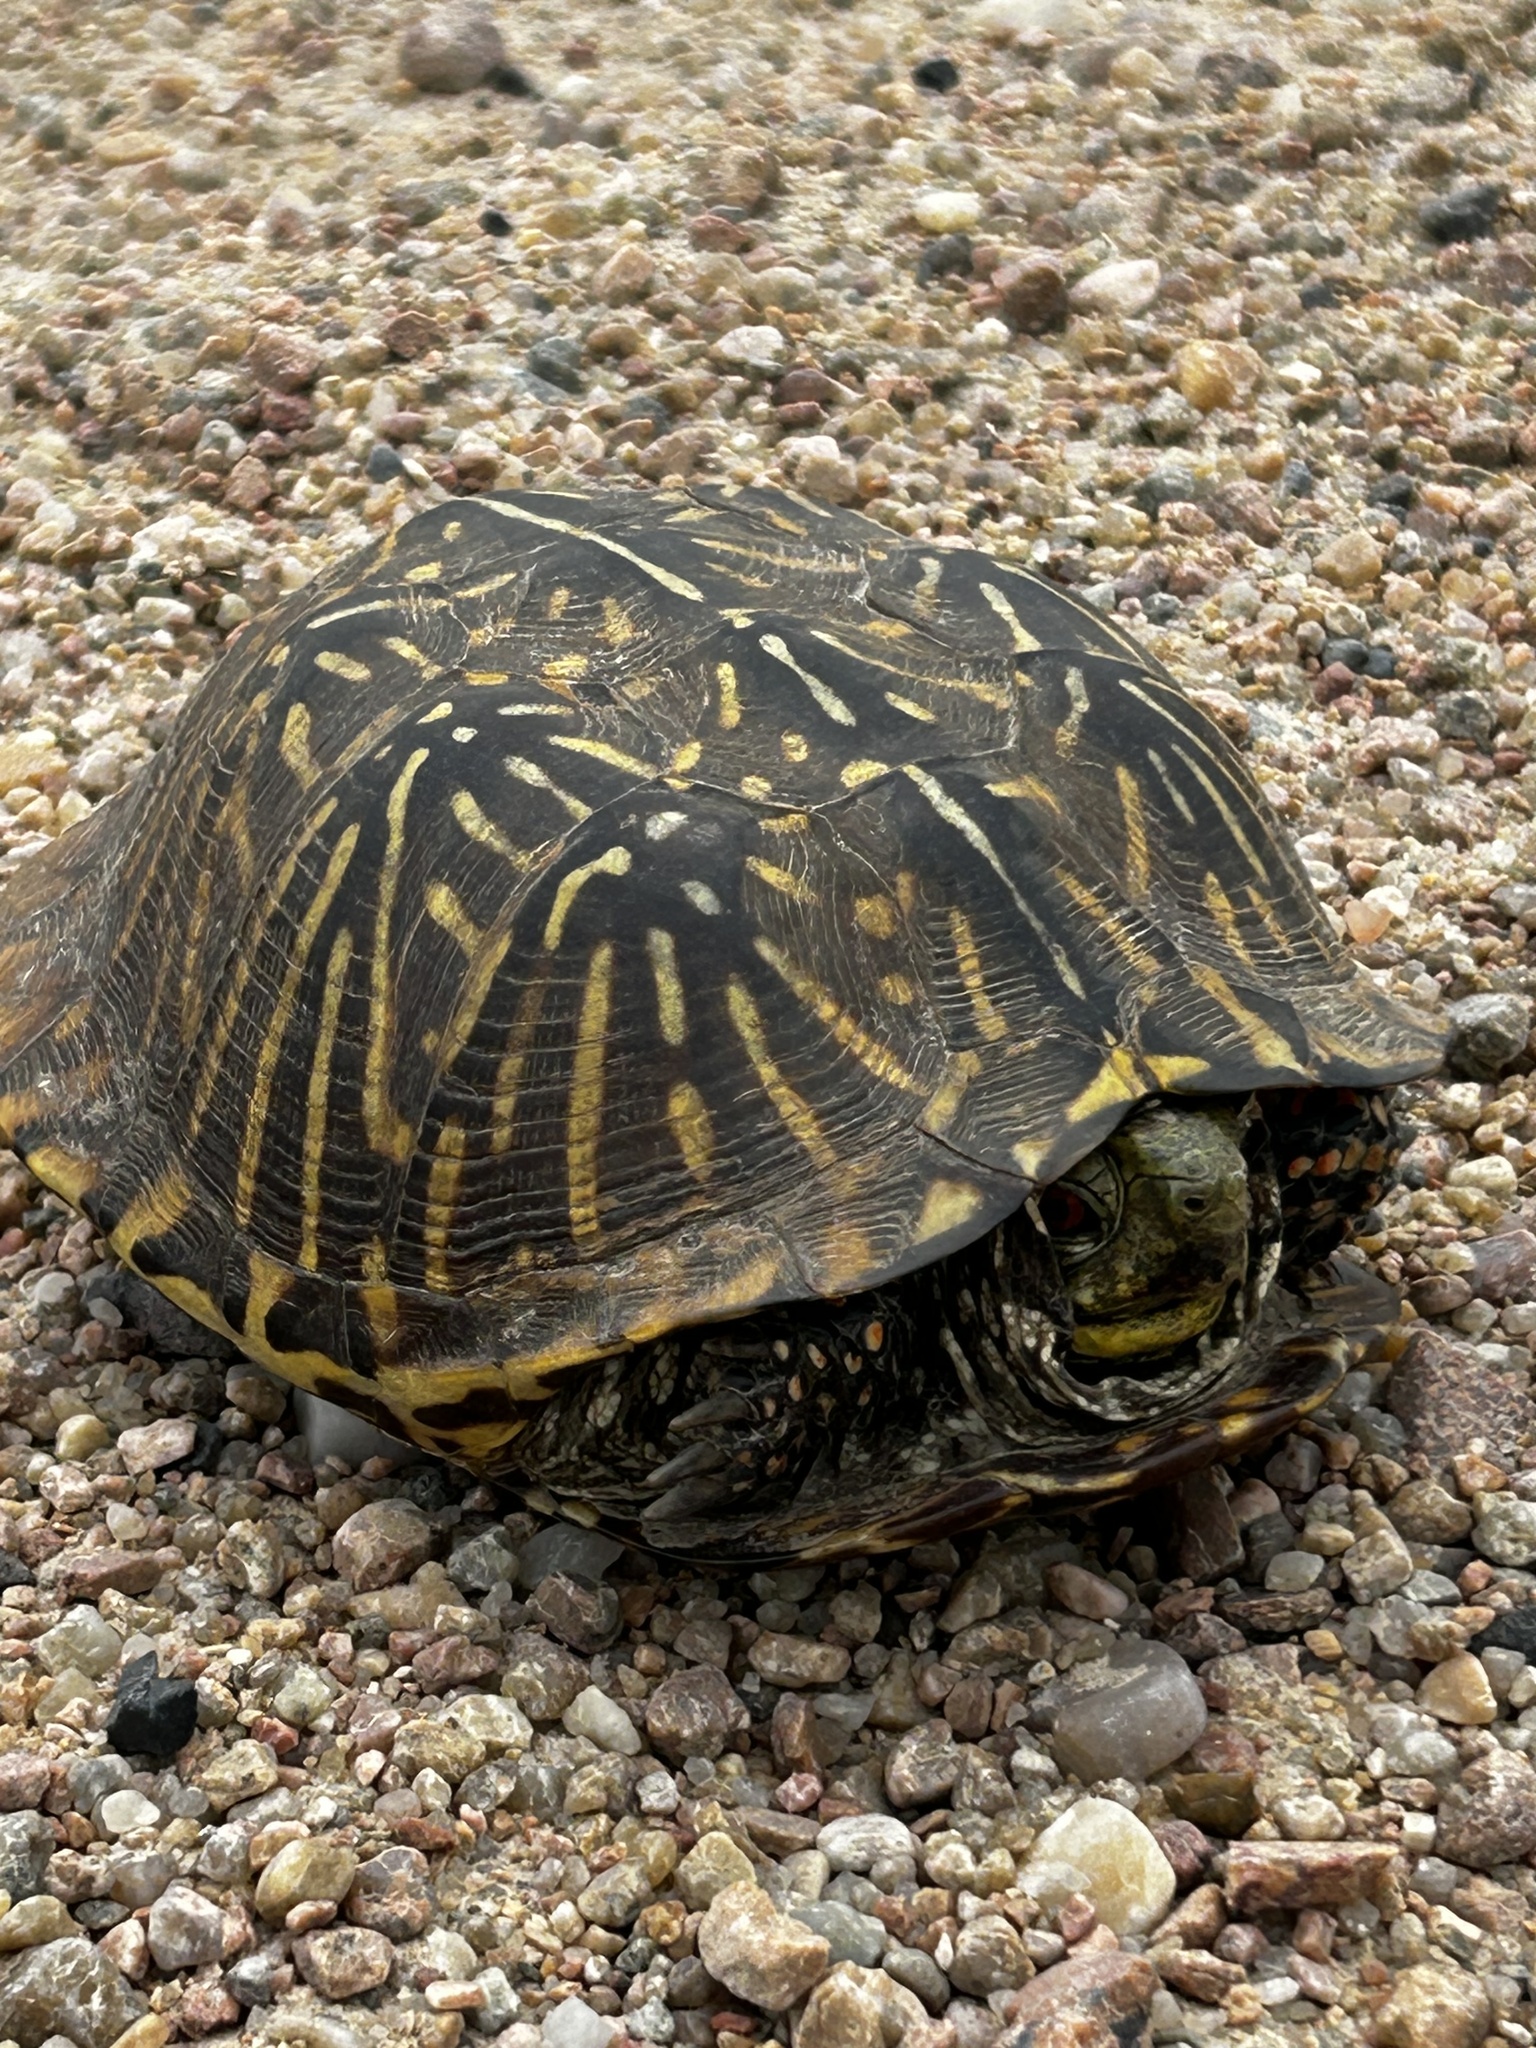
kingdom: Animalia
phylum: Chordata
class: Testudines
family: Emydidae
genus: Terrapene
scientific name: Terrapene ornata
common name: Western box turtle
